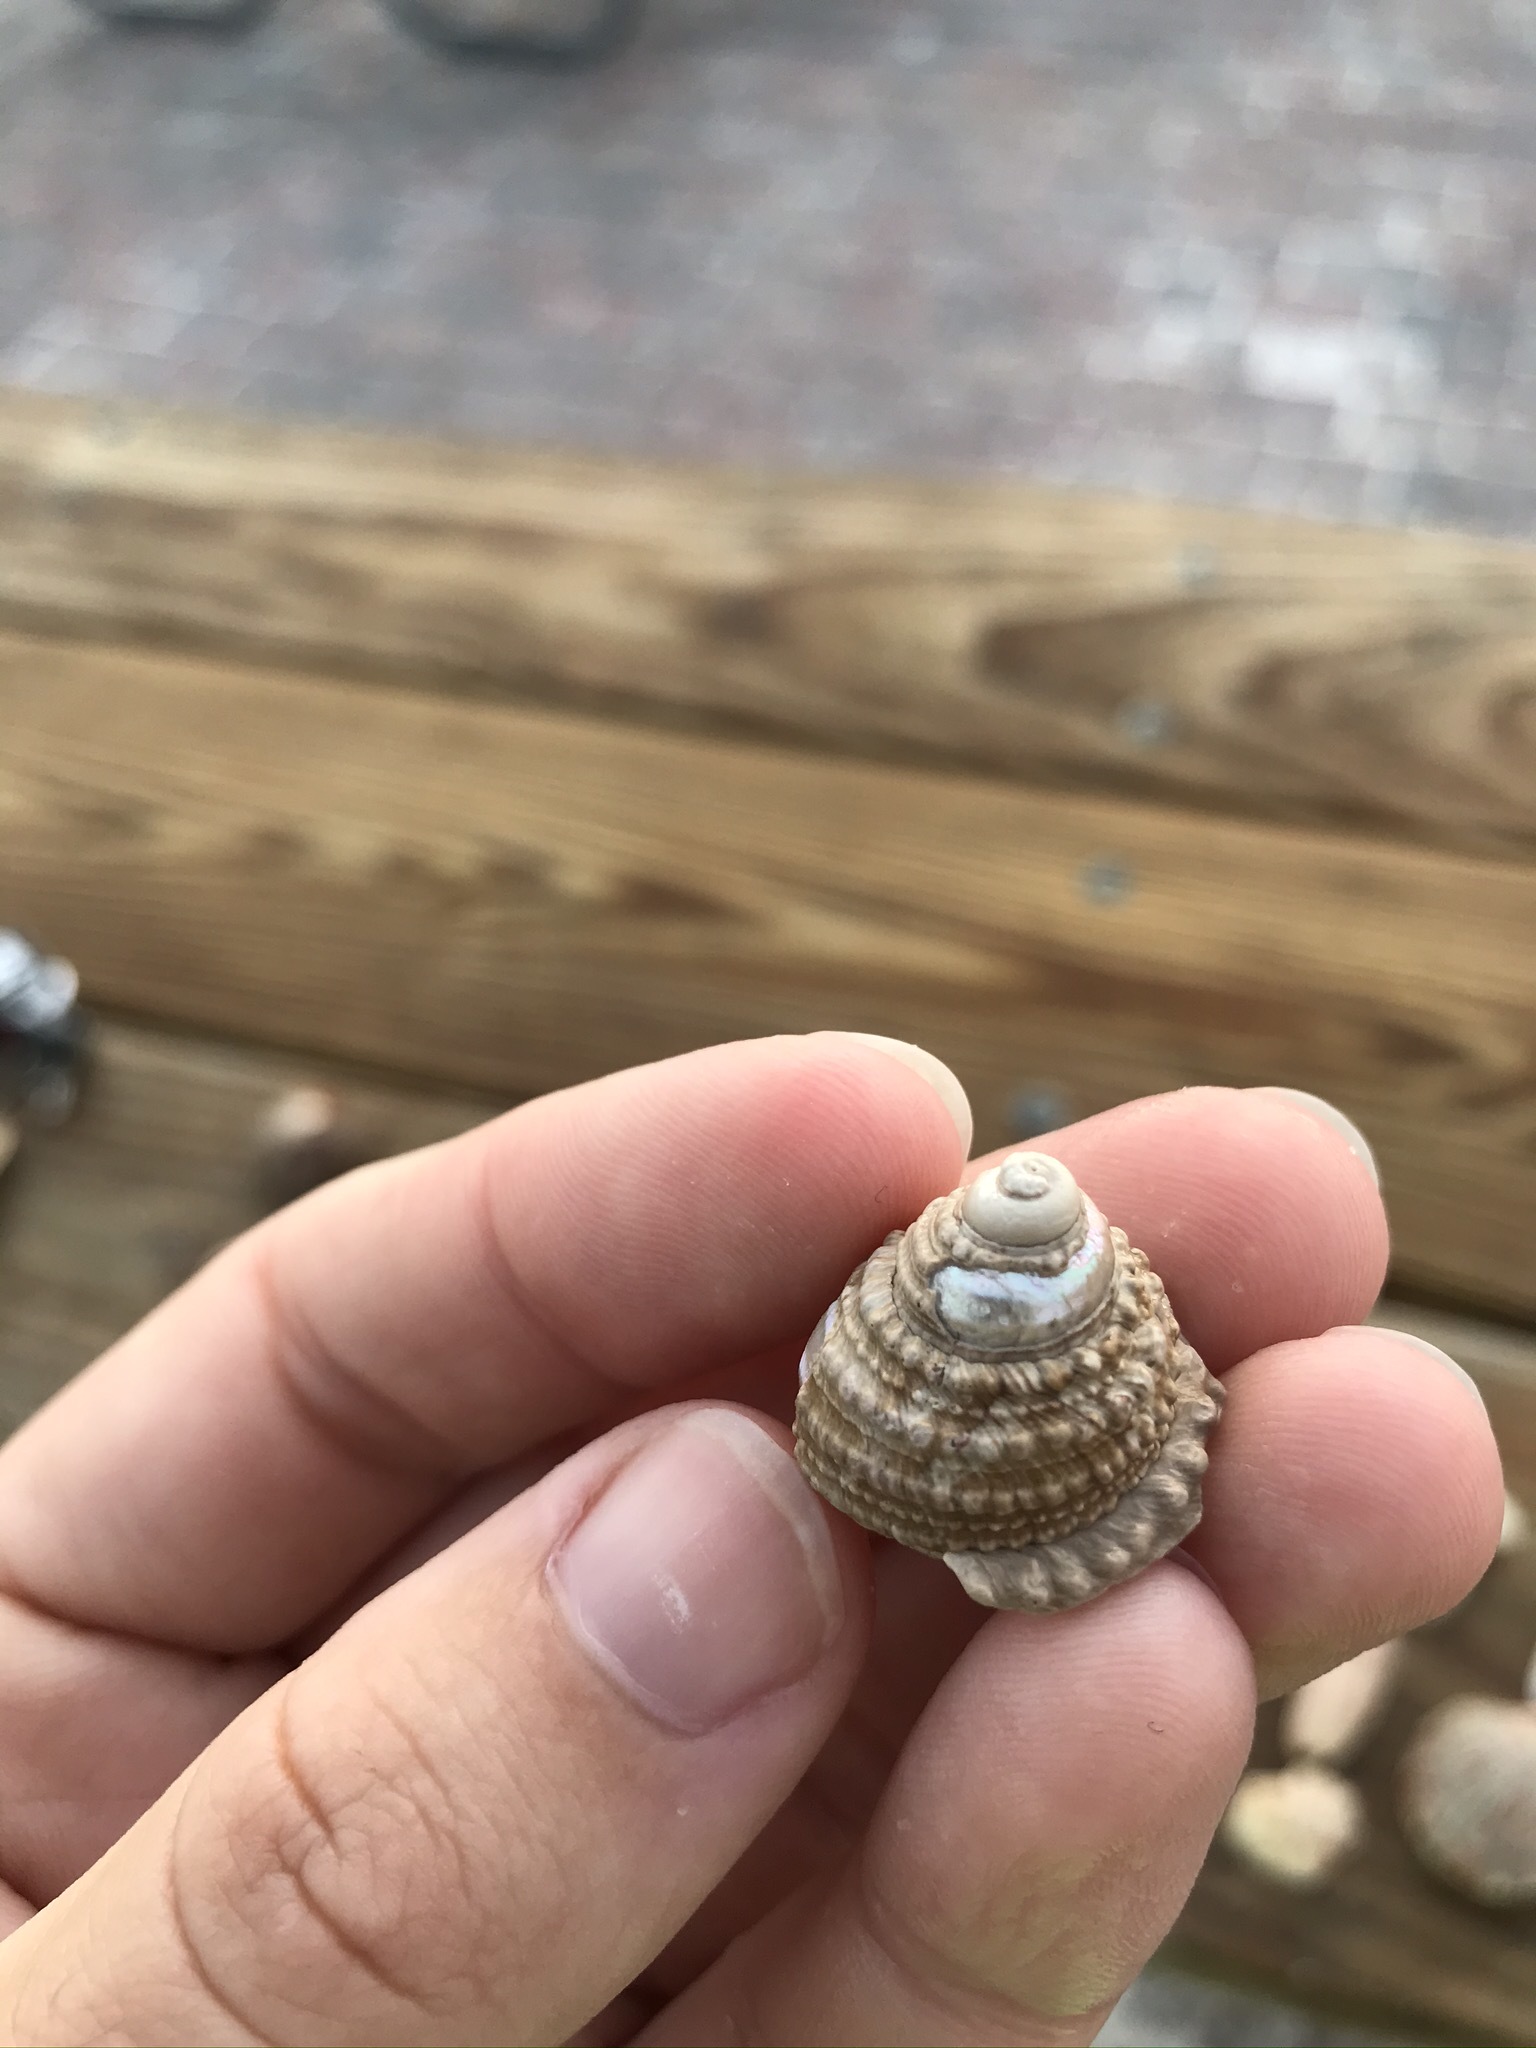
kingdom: Animalia
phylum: Mollusca
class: Gastropoda
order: Trochida
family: Turbinidae
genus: Turbo
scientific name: Turbo castanea
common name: Chestnut turban
